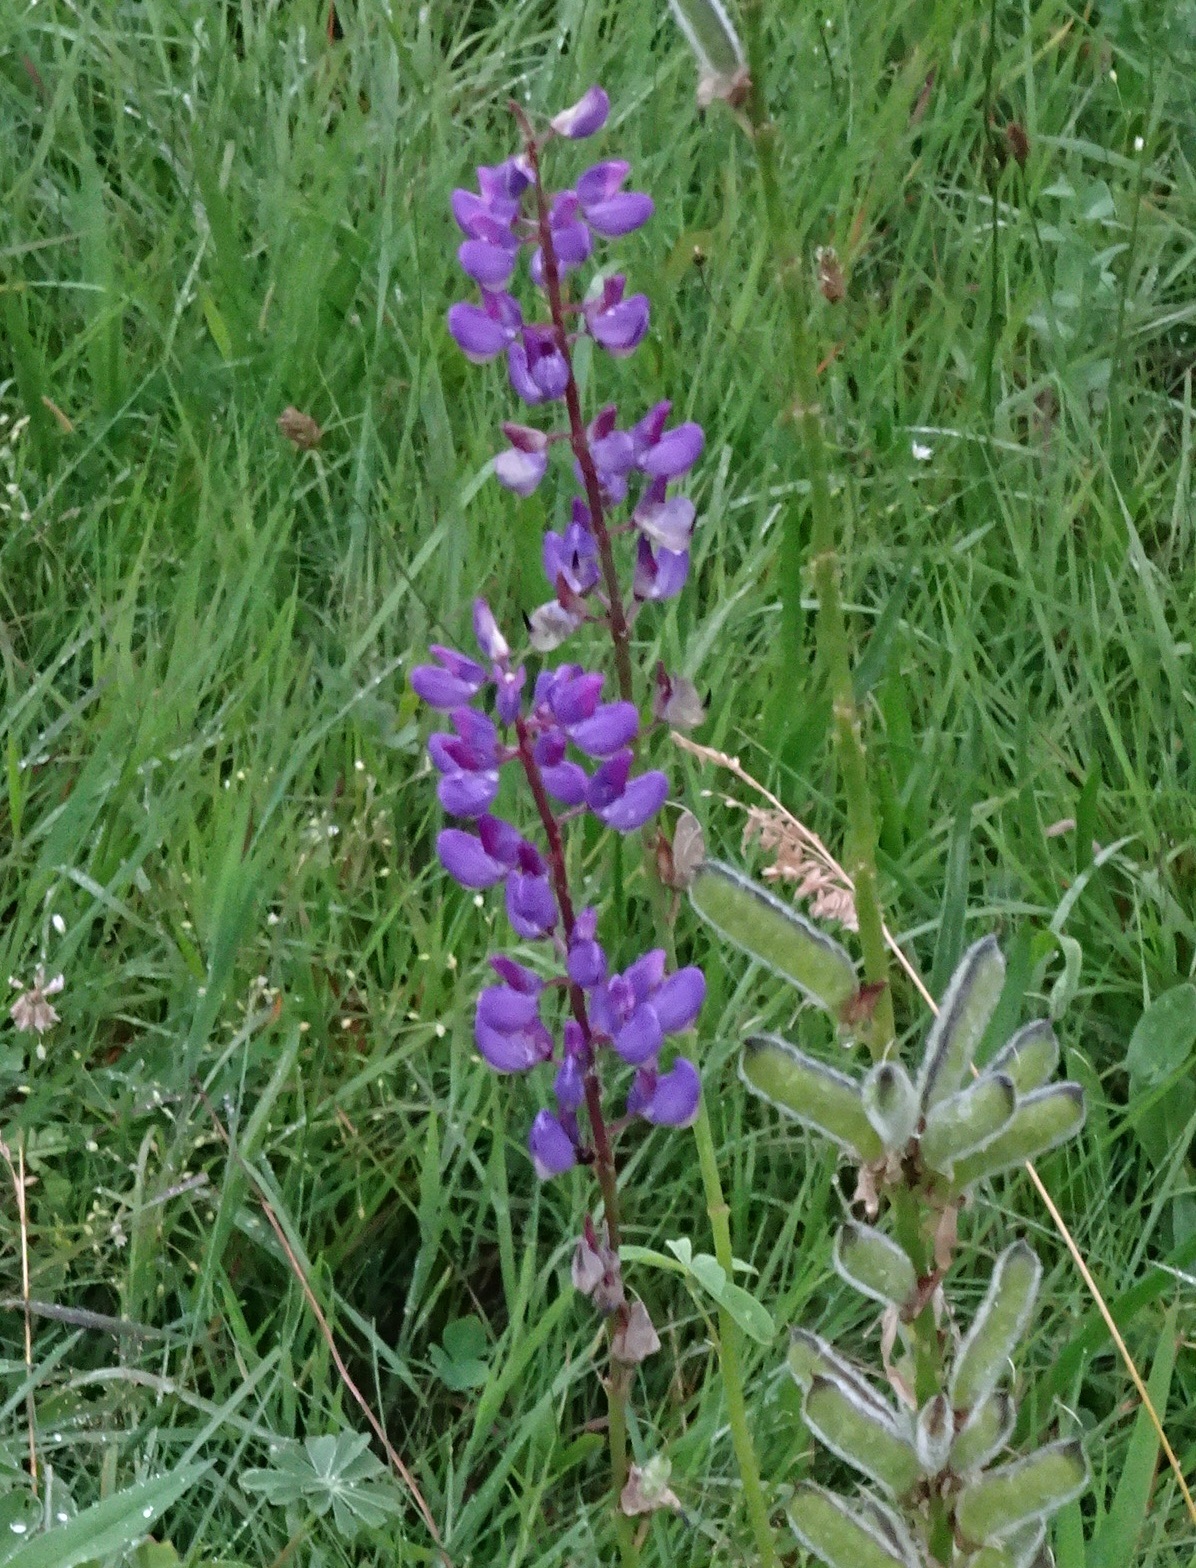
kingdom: Plantae
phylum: Tracheophyta
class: Magnoliopsida
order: Fabales
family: Fabaceae
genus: Lupinus
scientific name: Lupinus polyphyllus
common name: Garden lupin
